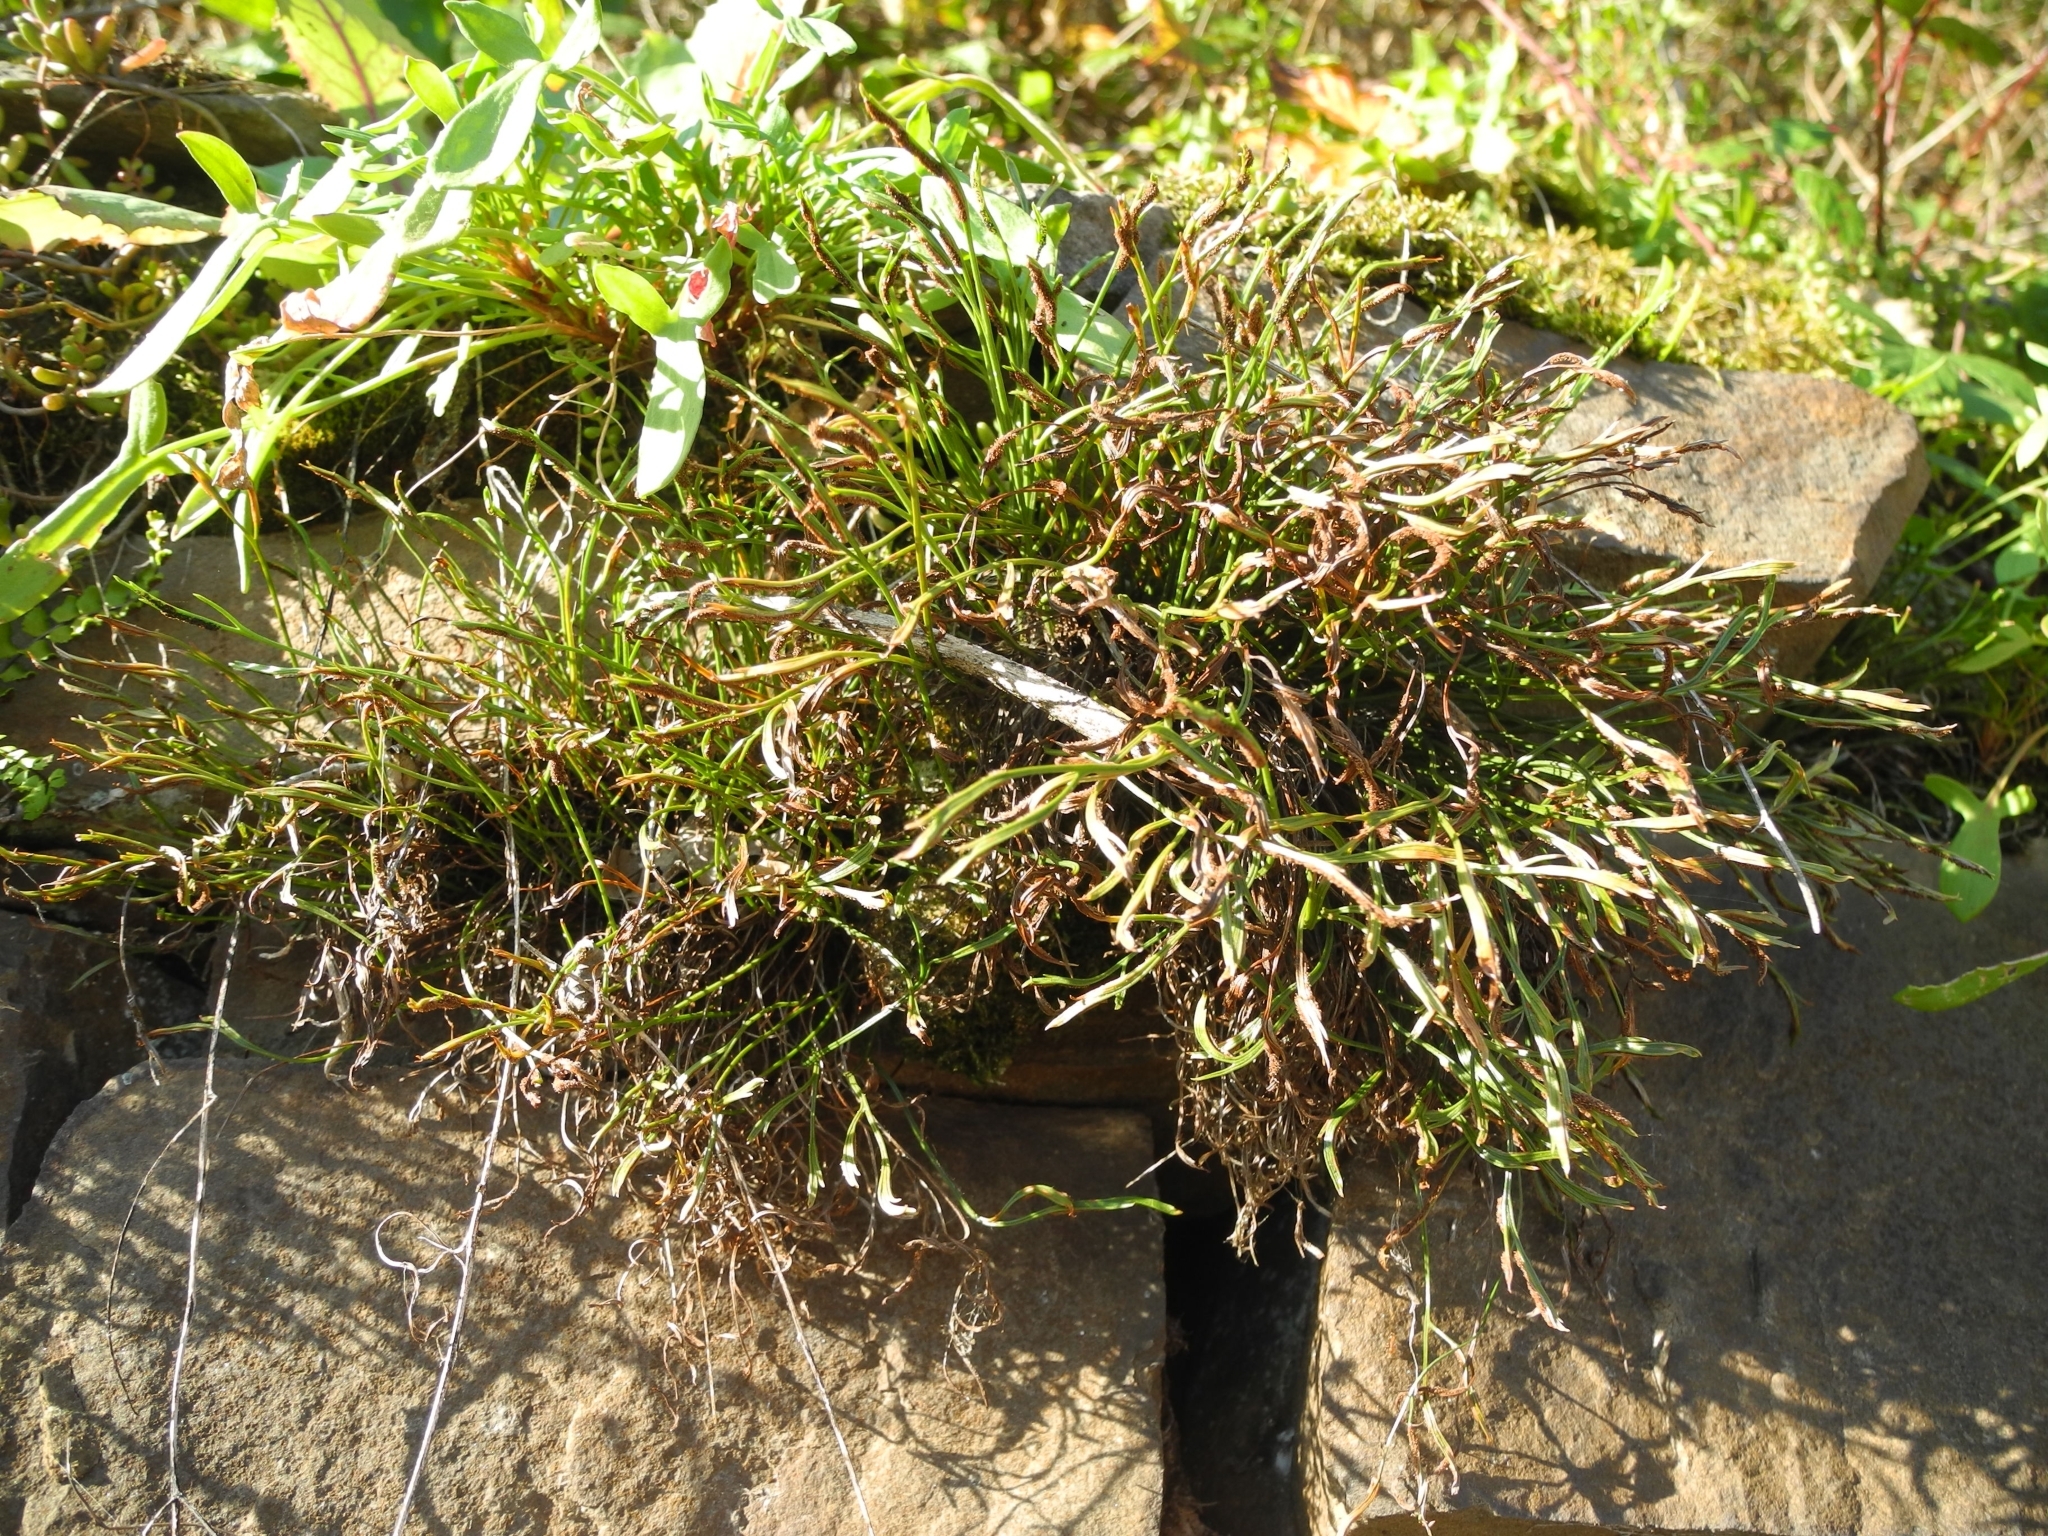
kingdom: Plantae
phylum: Tracheophyta
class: Polypodiopsida
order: Polypodiales
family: Aspleniaceae
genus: Asplenium
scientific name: Asplenium septentrionale
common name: Forked spleenwort
